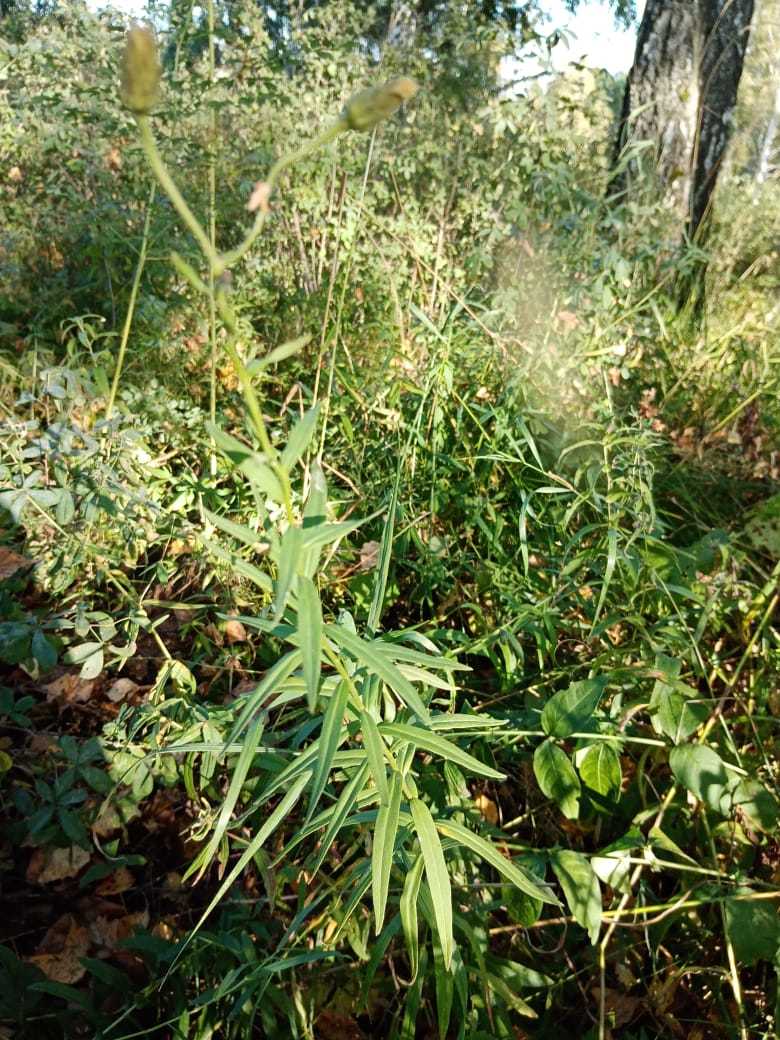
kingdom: Plantae
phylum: Tracheophyta
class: Magnoliopsida
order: Asterales
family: Asteraceae
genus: Hieracium
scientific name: Hieracium umbellatum
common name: Northern hawkweed
